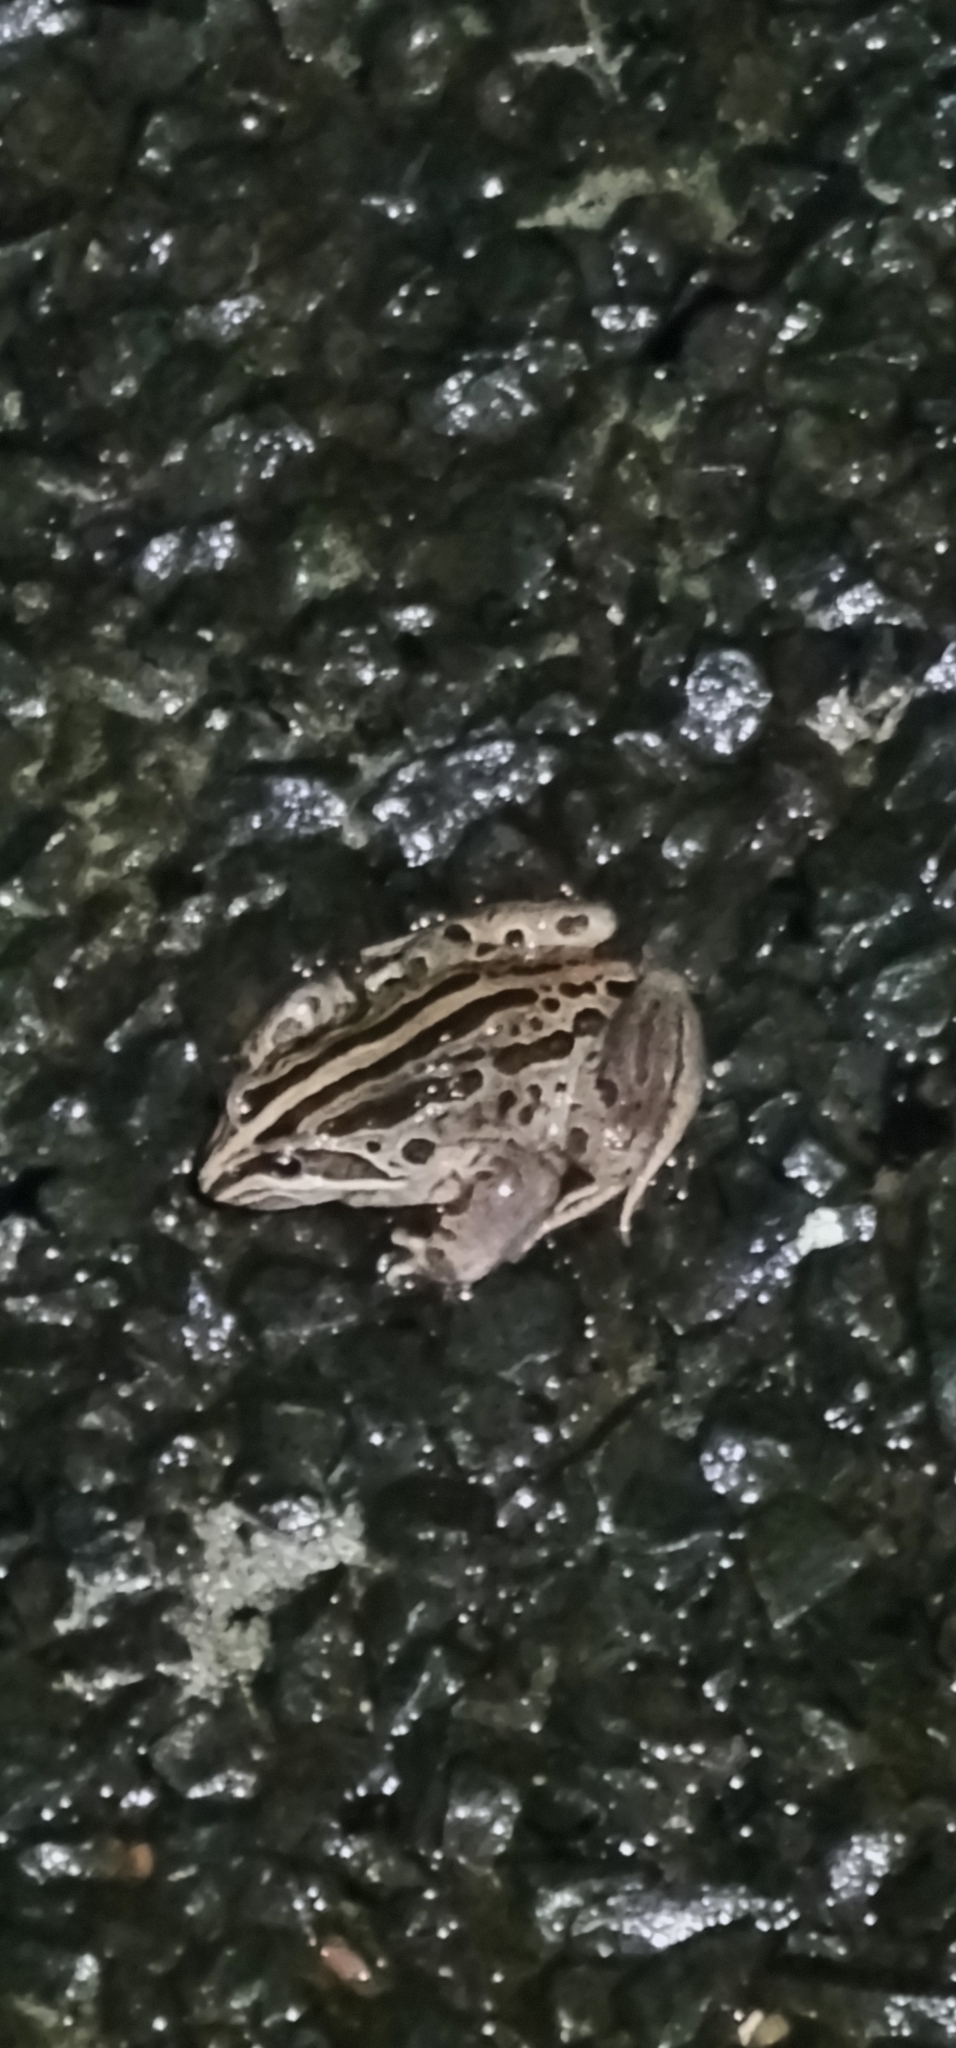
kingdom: Animalia
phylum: Chordata
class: Amphibia
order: Anura
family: Limnodynastidae
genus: Limnodynastes
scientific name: Limnodynastes peronii
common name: Brown frog
